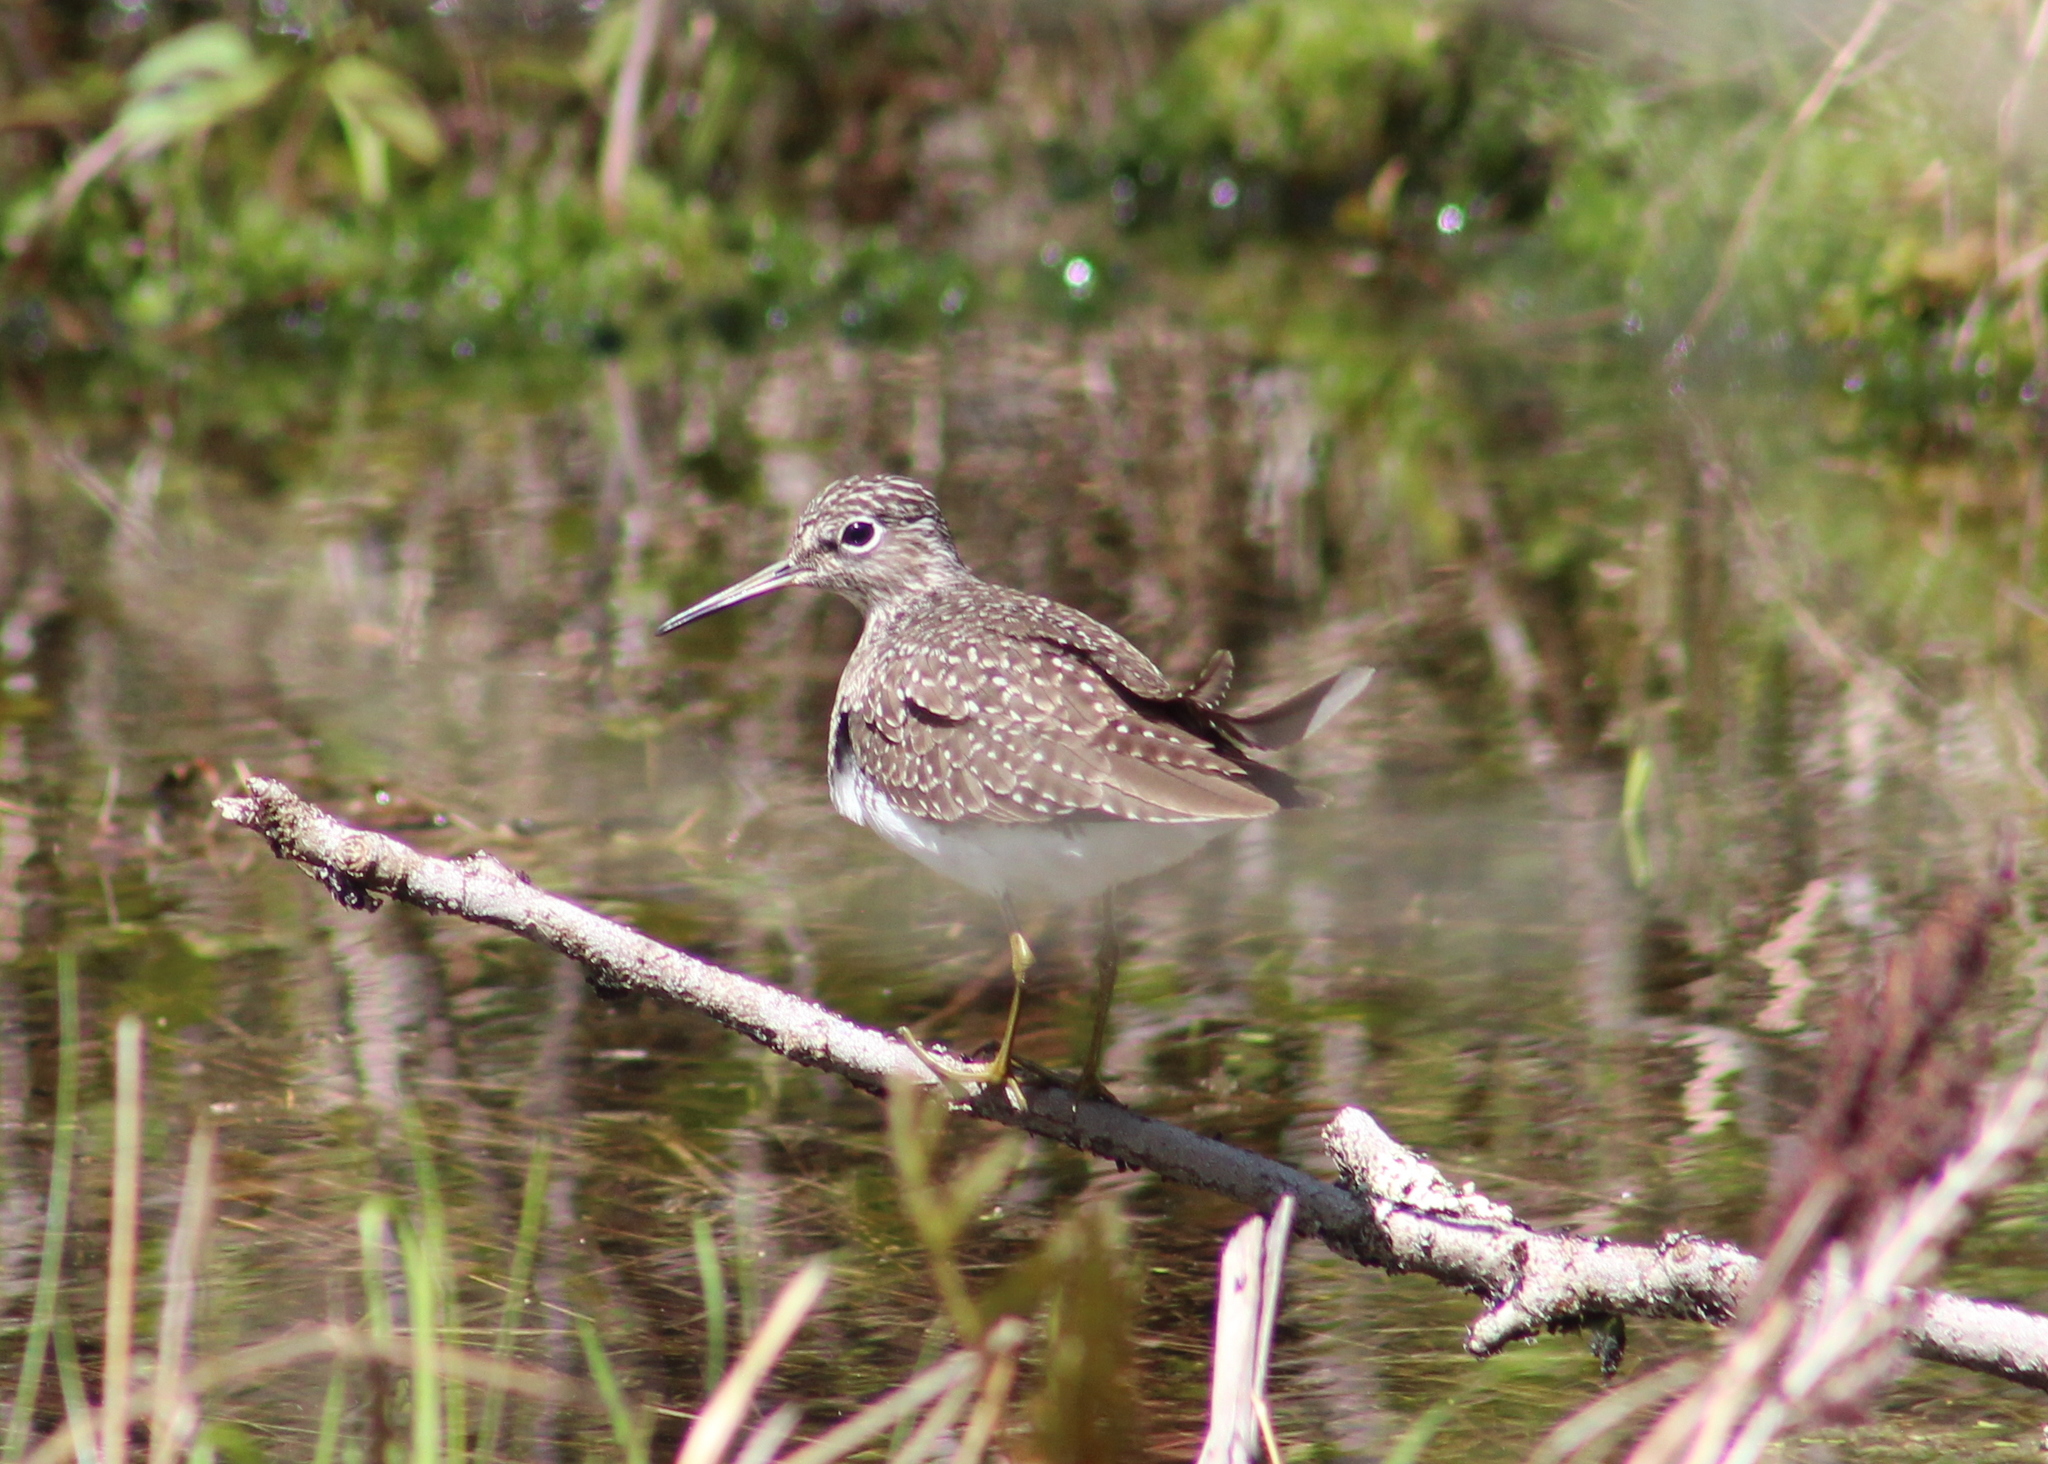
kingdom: Animalia
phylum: Chordata
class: Aves
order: Charadriiformes
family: Scolopacidae
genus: Tringa
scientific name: Tringa solitaria
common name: Solitary sandpiper
